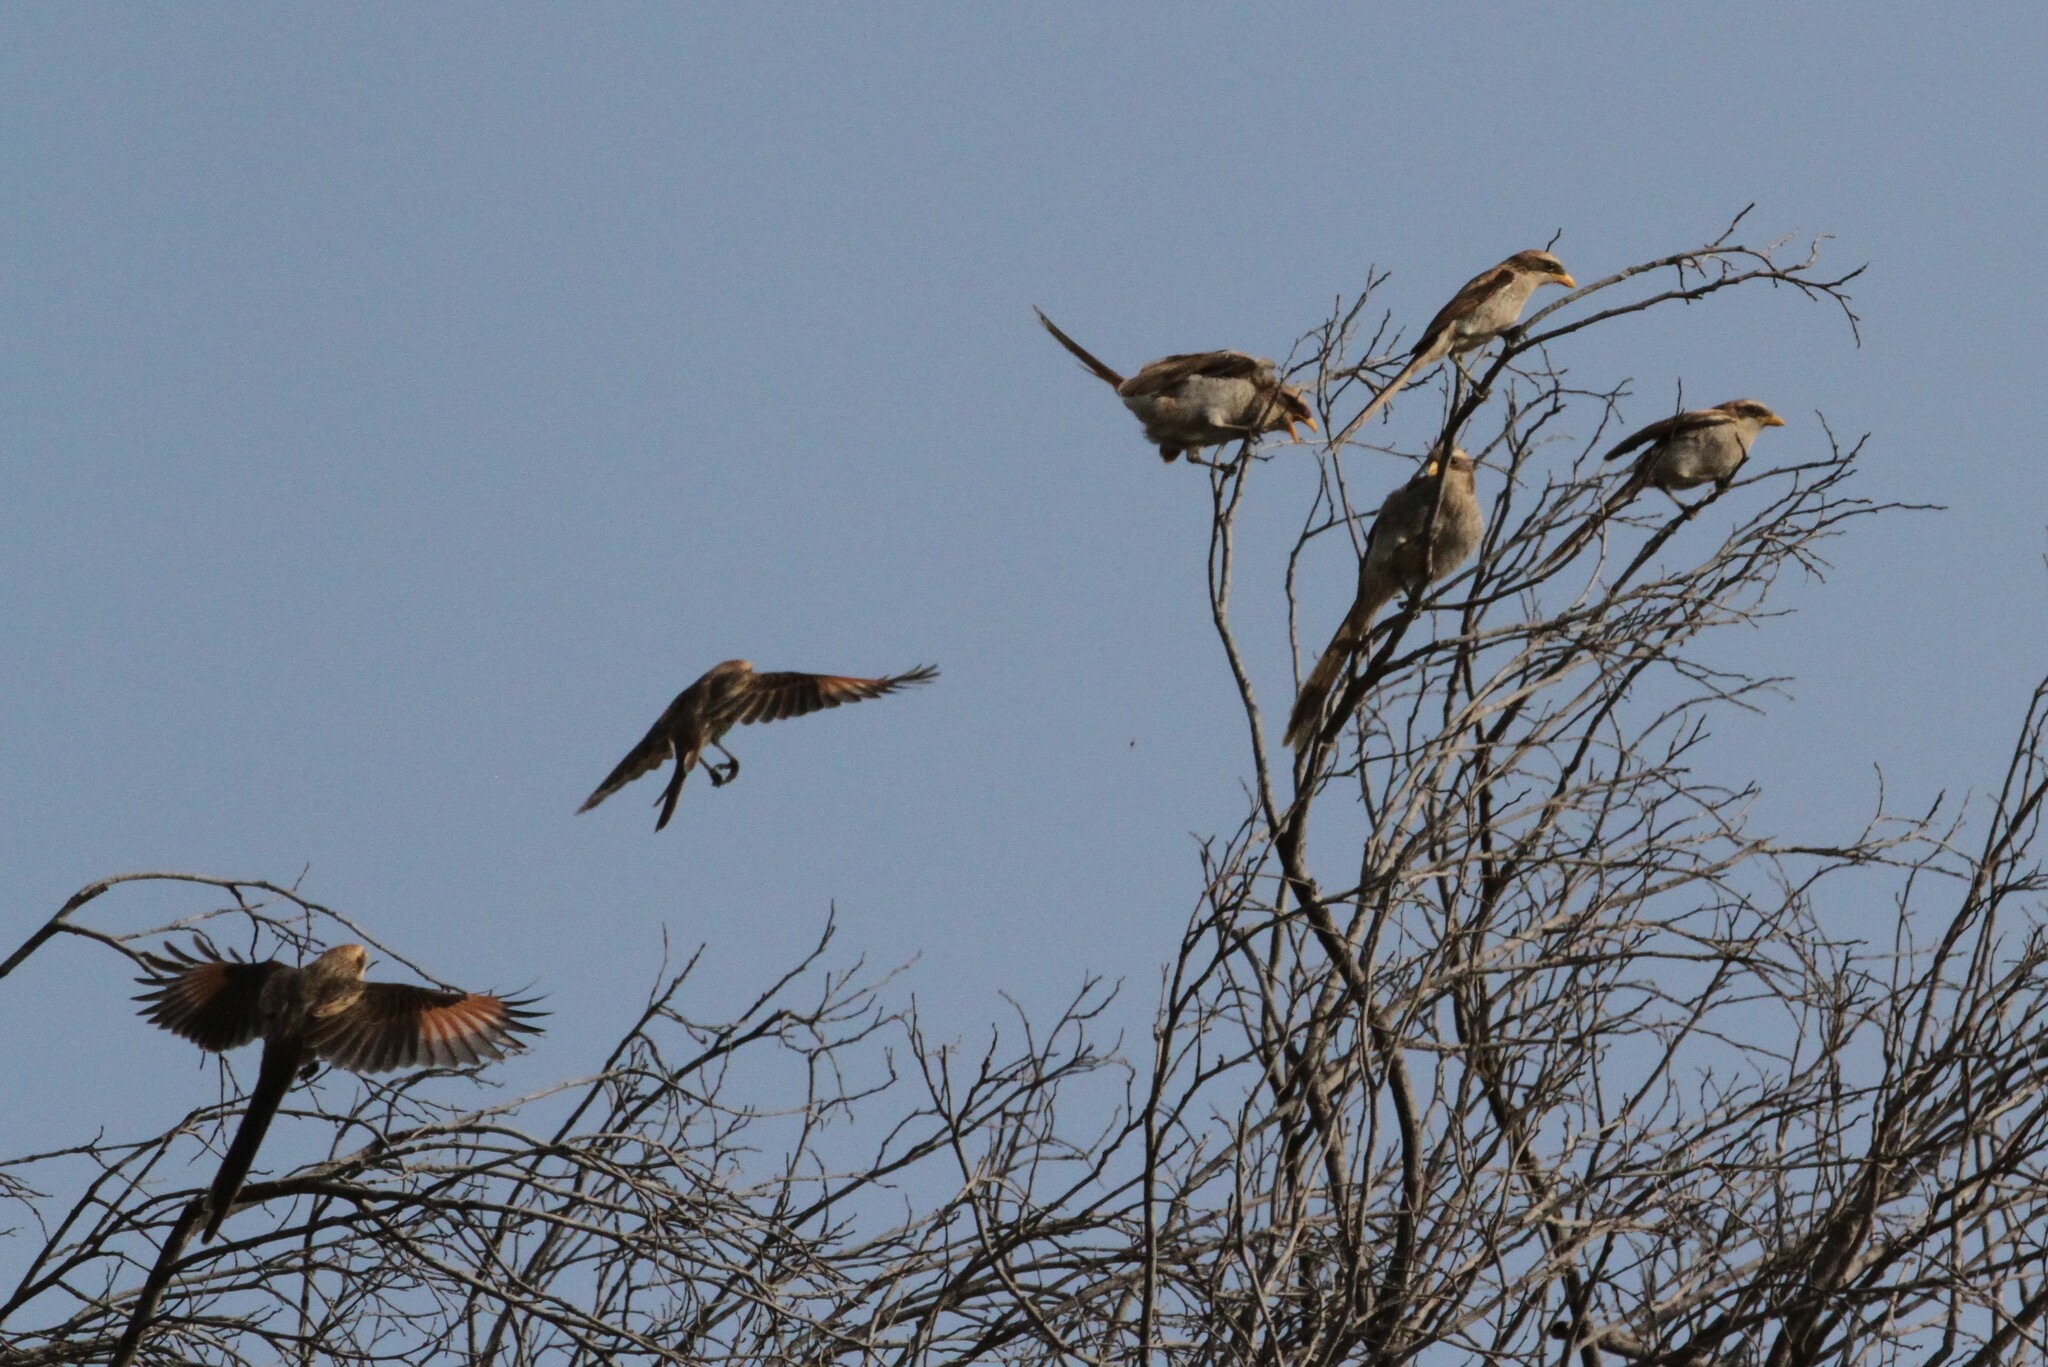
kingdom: Animalia
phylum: Chordata
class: Aves
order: Passeriformes
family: Laniidae
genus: Corvinella
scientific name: Corvinella corvina
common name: Yellow-billed shrike
